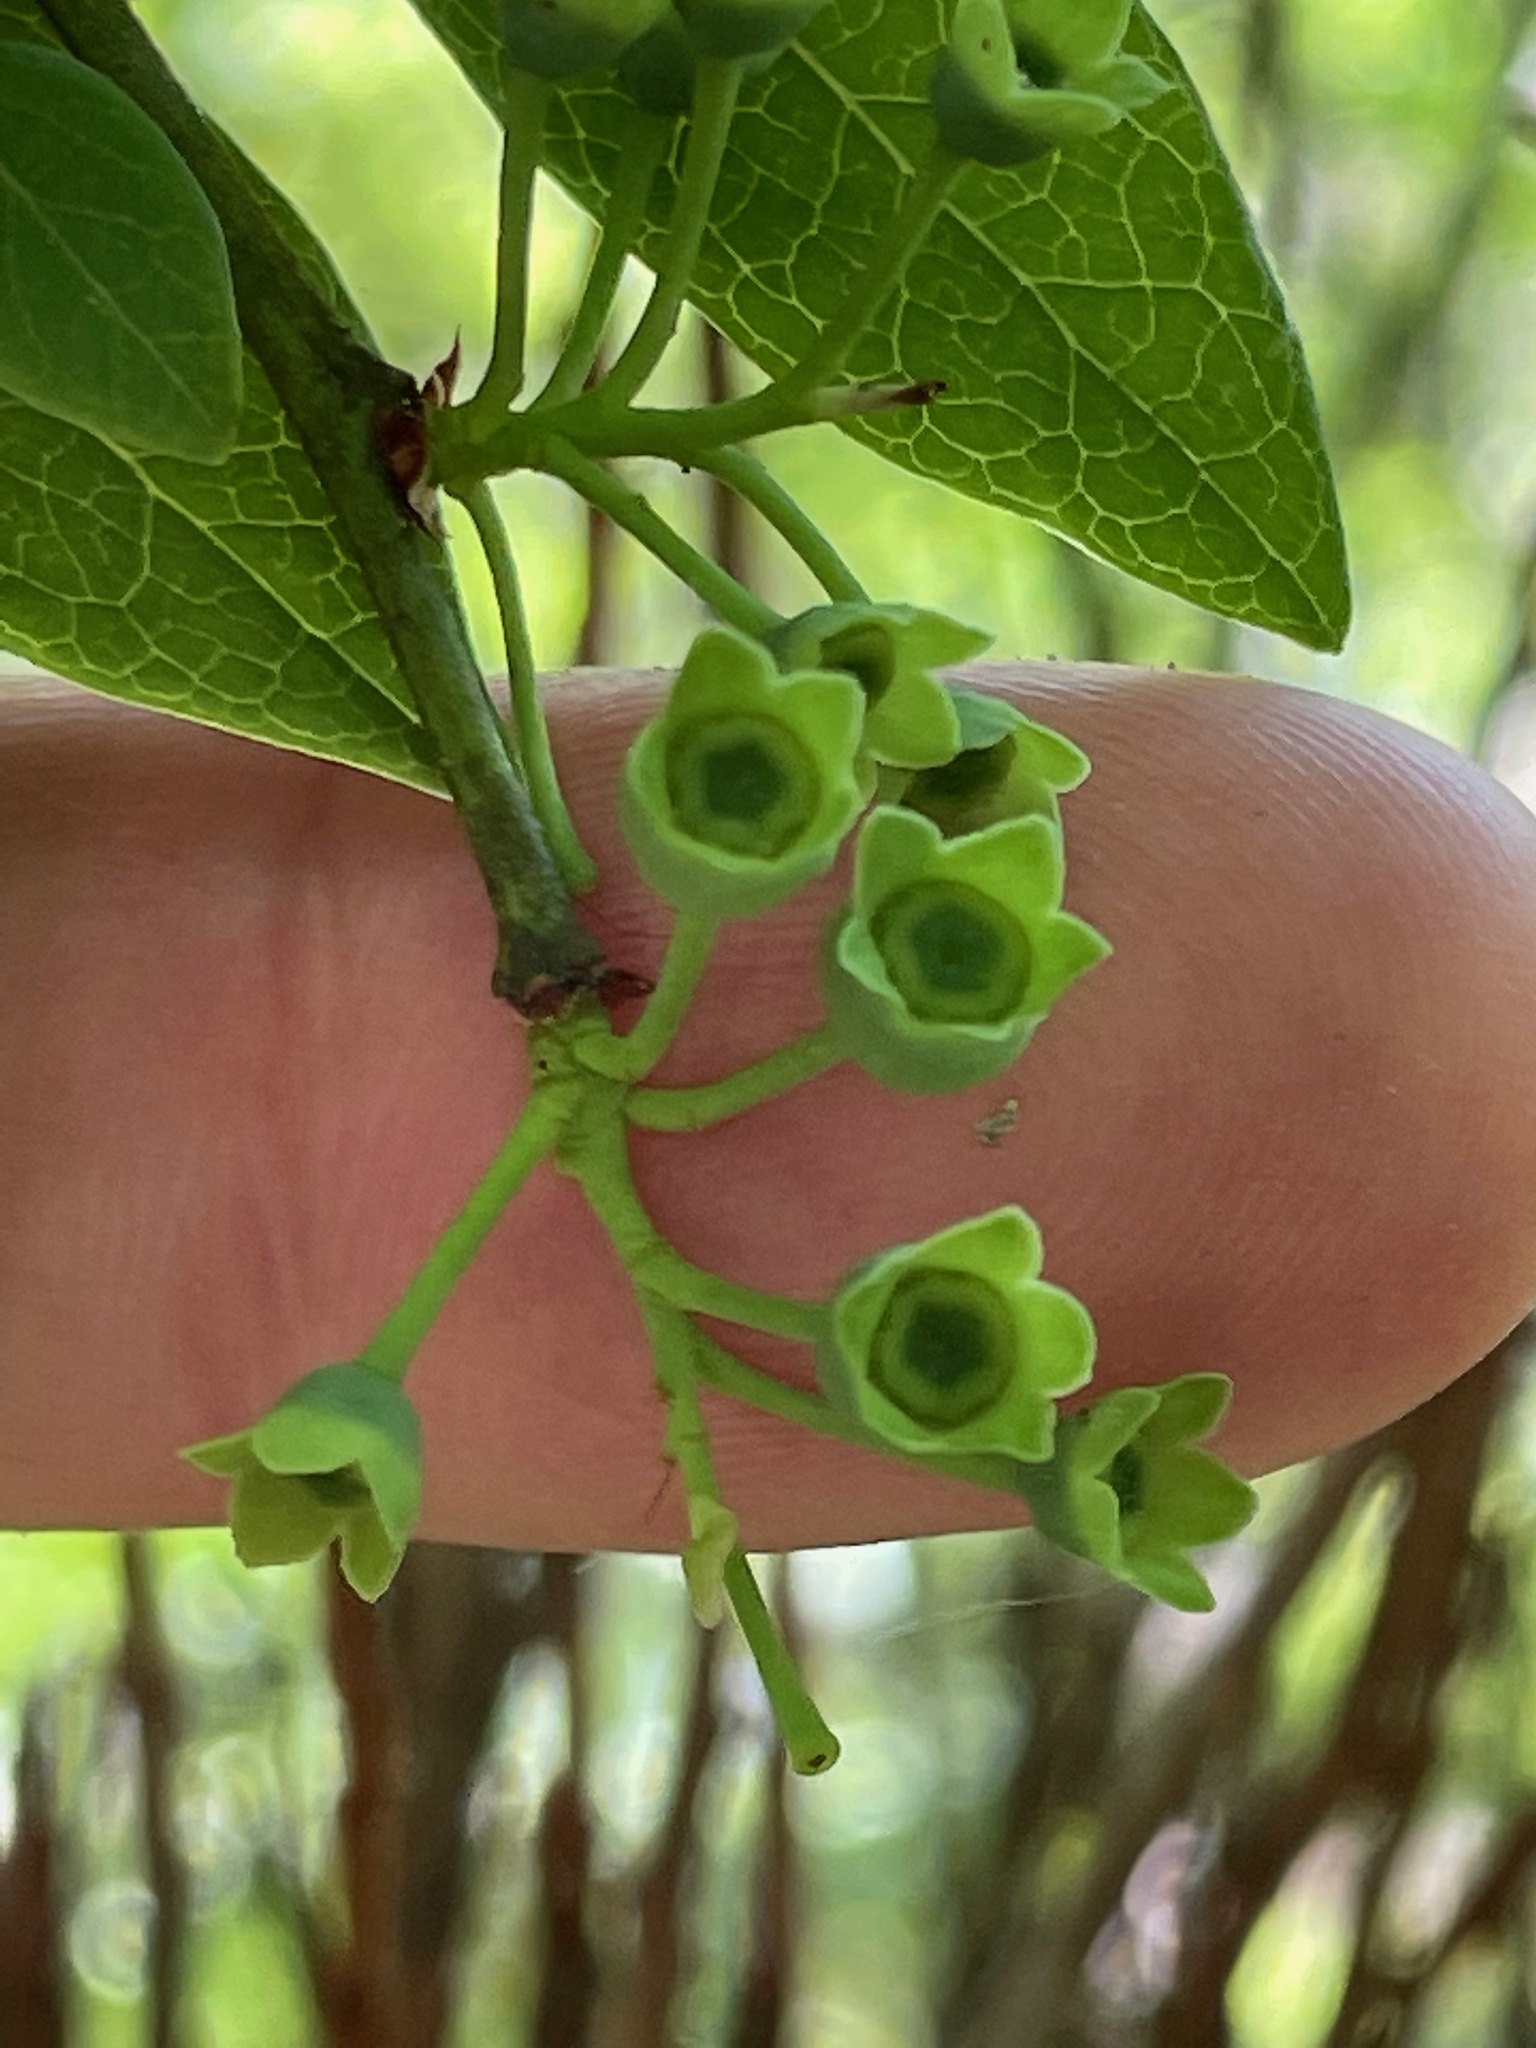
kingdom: Plantae
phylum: Tracheophyta
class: Magnoliopsida
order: Ericales
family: Ericaceae
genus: Vaccinium
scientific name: Vaccinium corymbosum
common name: Blueberry
